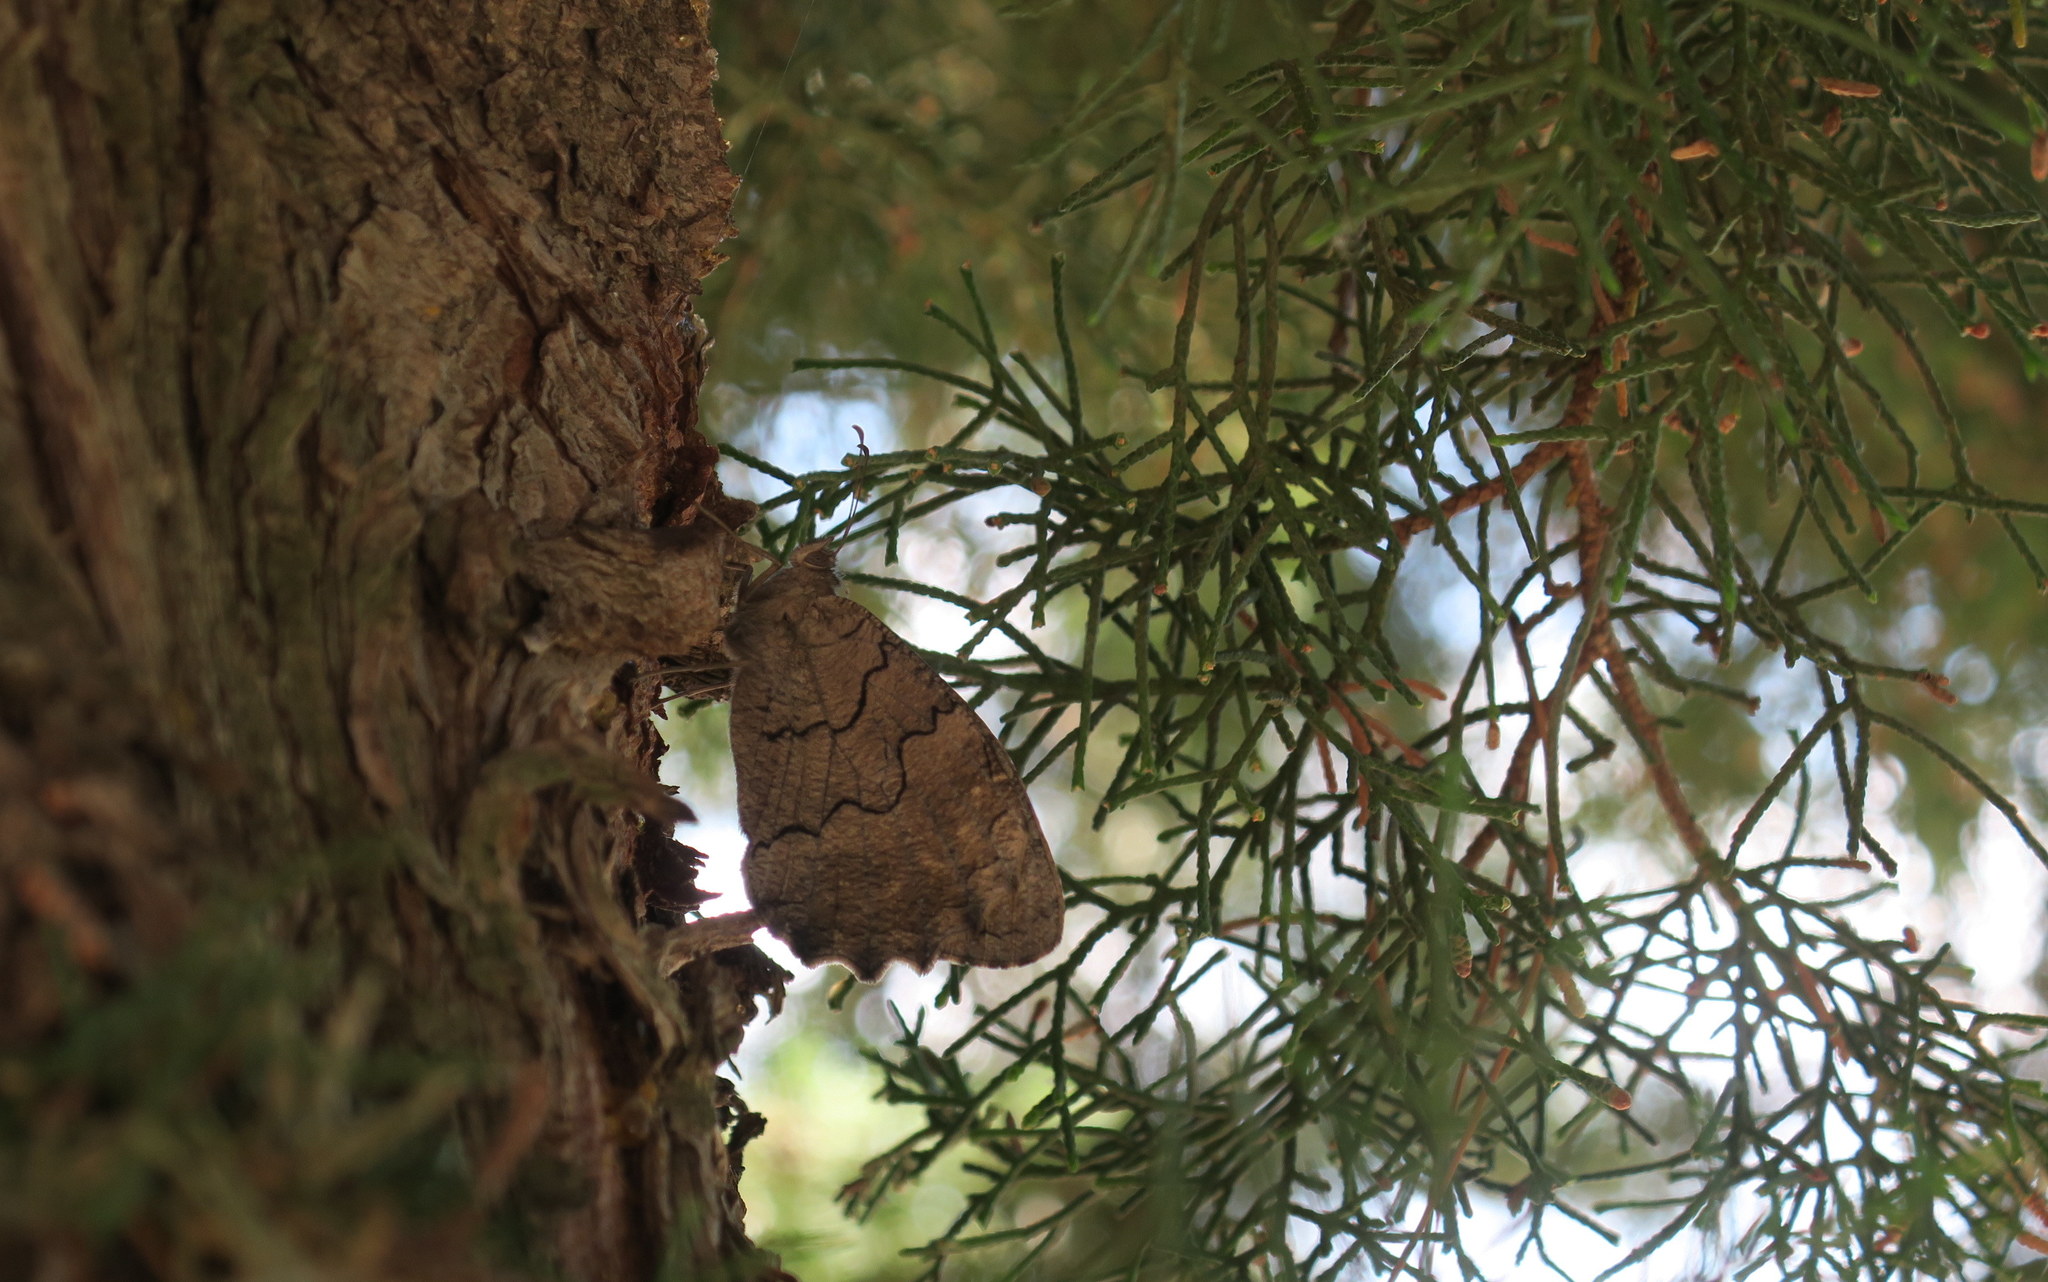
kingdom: Animalia
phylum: Arthropoda
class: Insecta
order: Lepidoptera
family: Nymphalidae
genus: Hipparchia
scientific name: Hipparchia fatua
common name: Freyer's grayling
